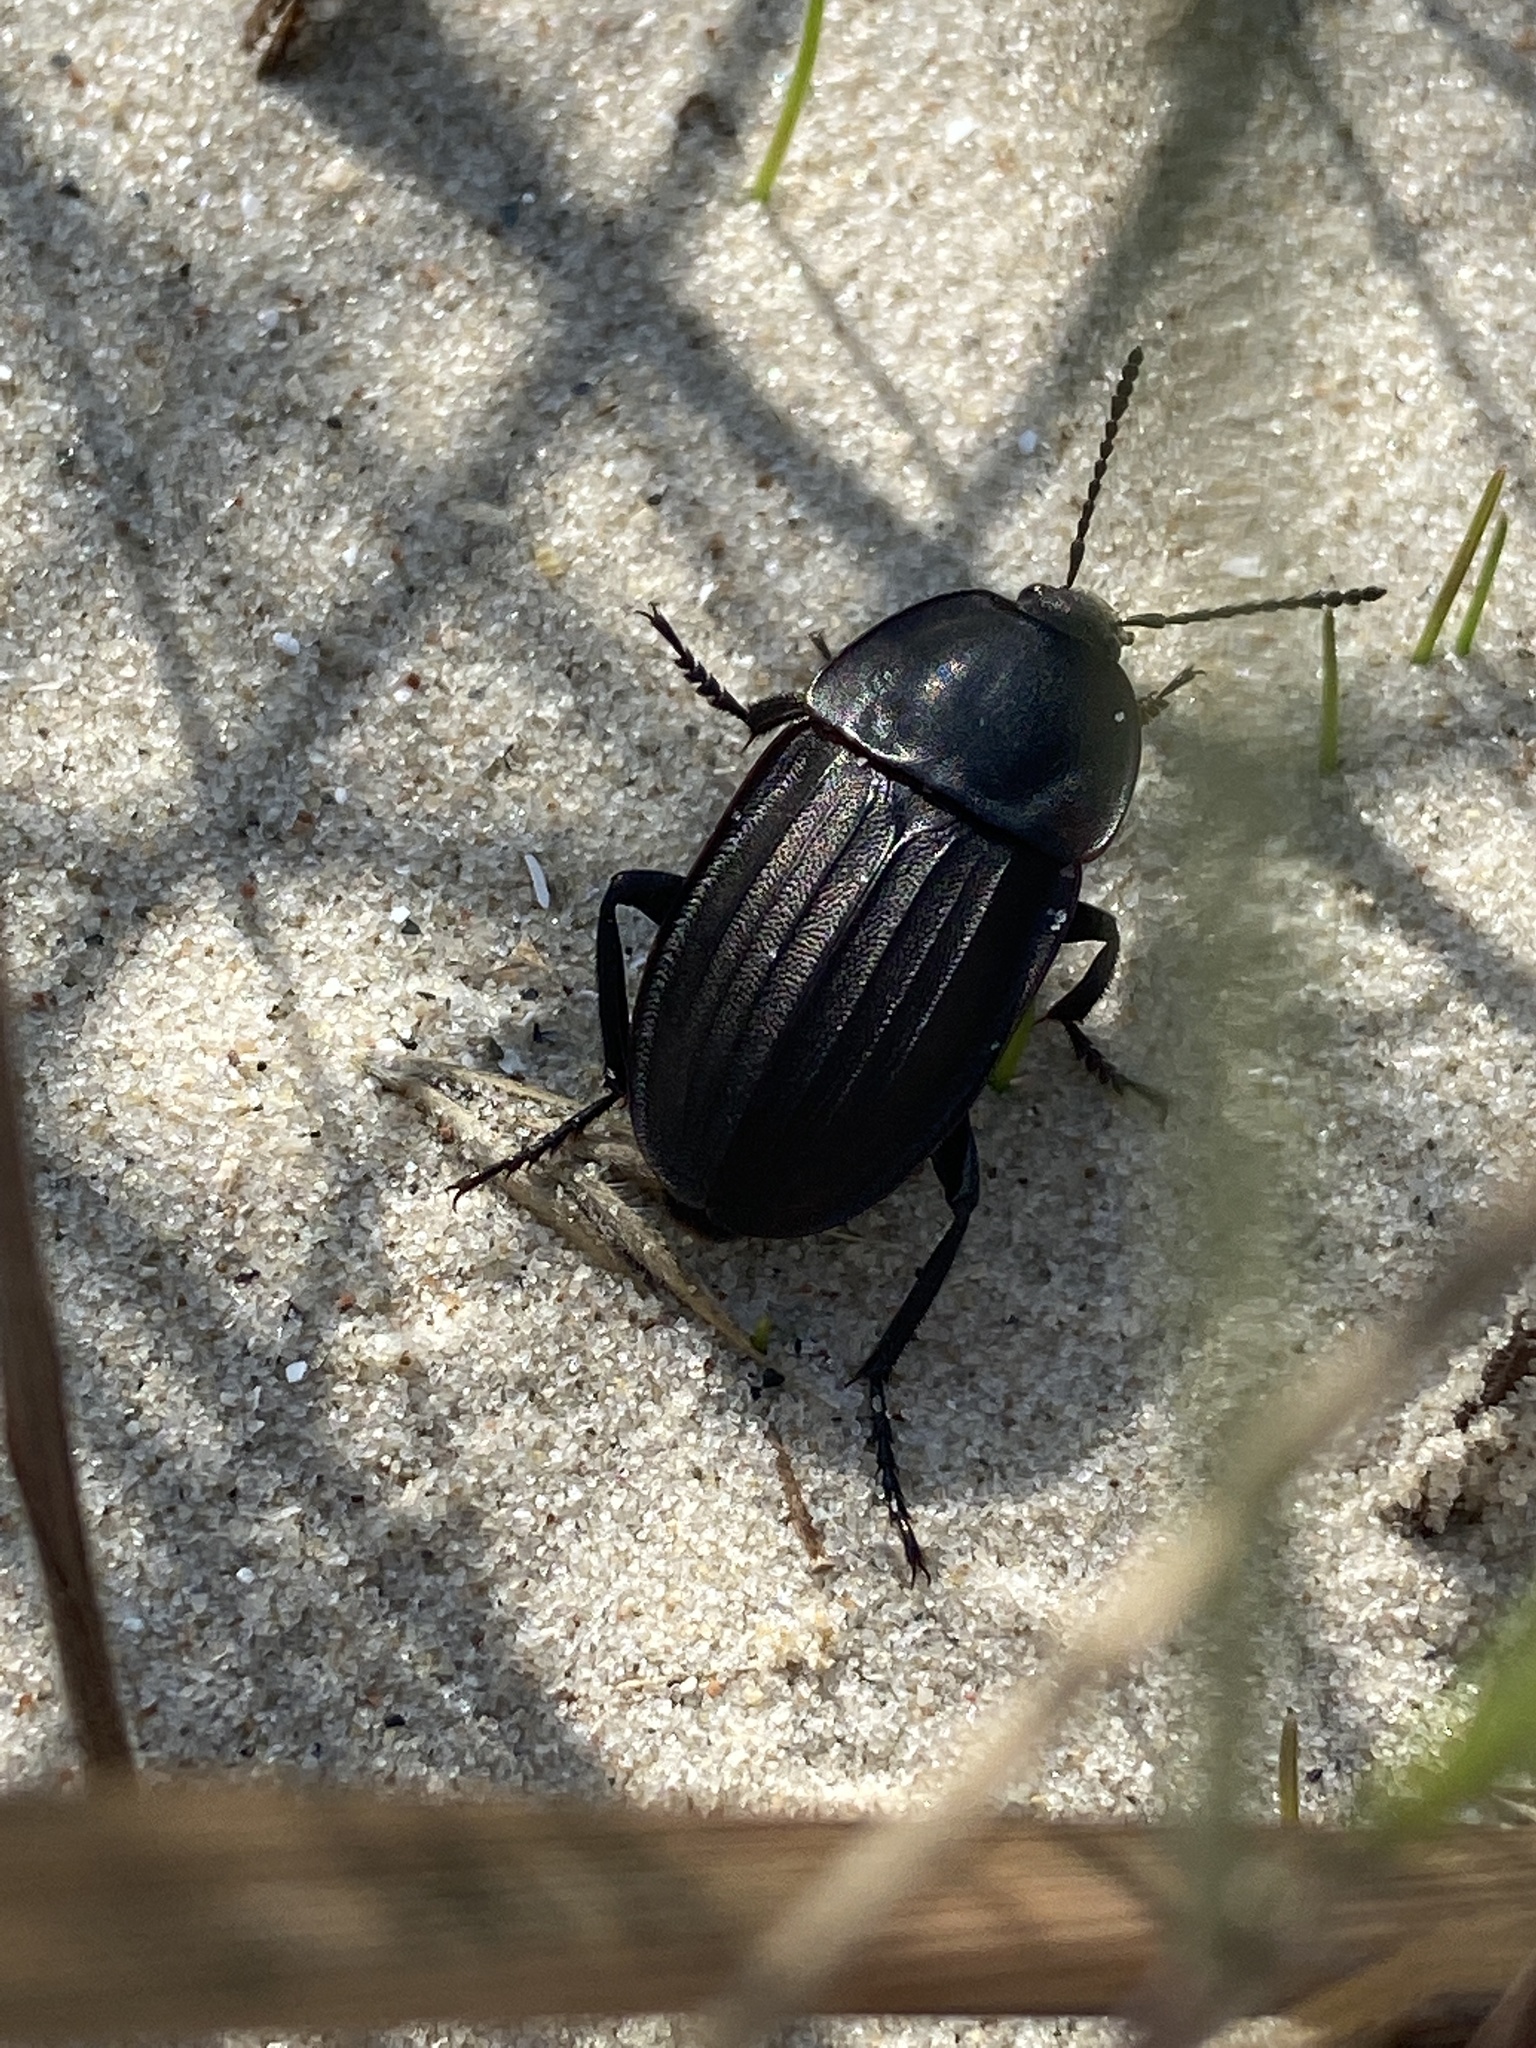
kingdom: Animalia
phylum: Arthropoda
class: Insecta
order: Coleoptera
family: Staphylinidae
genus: Silpha
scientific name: Silpha carinata
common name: Silphid beetle
